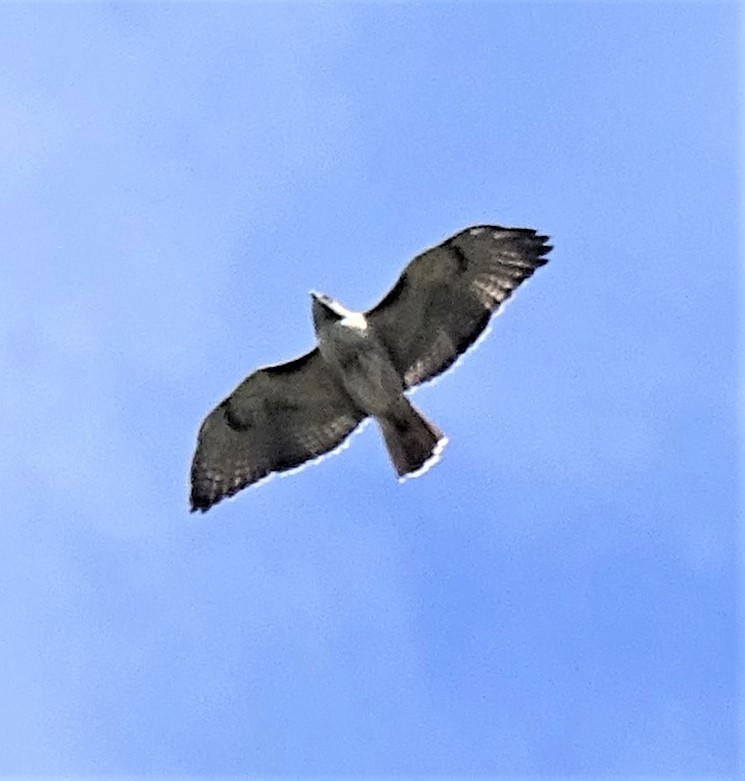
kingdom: Animalia
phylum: Chordata
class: Aves
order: Accipitriformes
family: Accipitridae
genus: Buteo
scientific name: Buteo jamaicensis
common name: Red-tailed hawk
